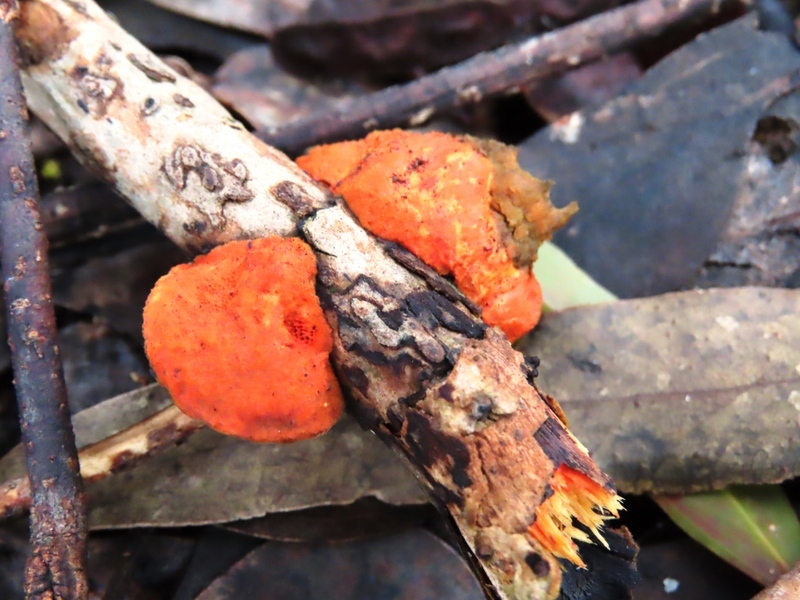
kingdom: Fungi
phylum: Basidiomycota
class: Agaricomycetes
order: Polyporales
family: Polyporaceae
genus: Trametes
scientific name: Trametes coccinea
